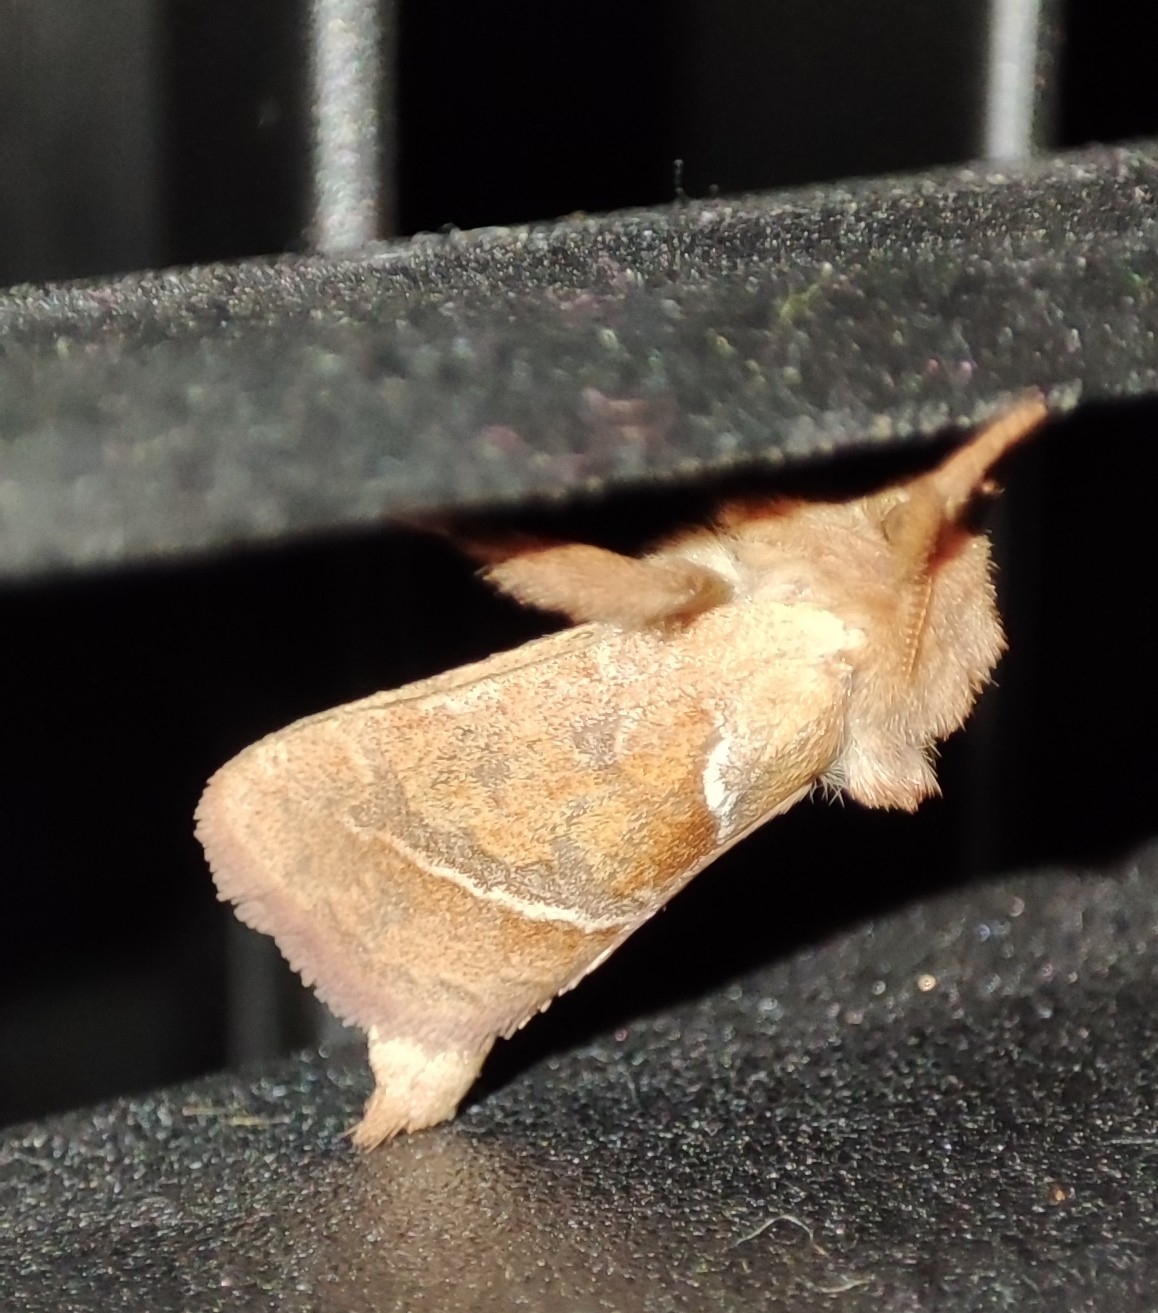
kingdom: Animalia
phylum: Arthropoda
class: Insecta
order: Lepidoptera
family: Hepialidae
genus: Triodia
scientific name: Triodia sylvina
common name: Orange swift
